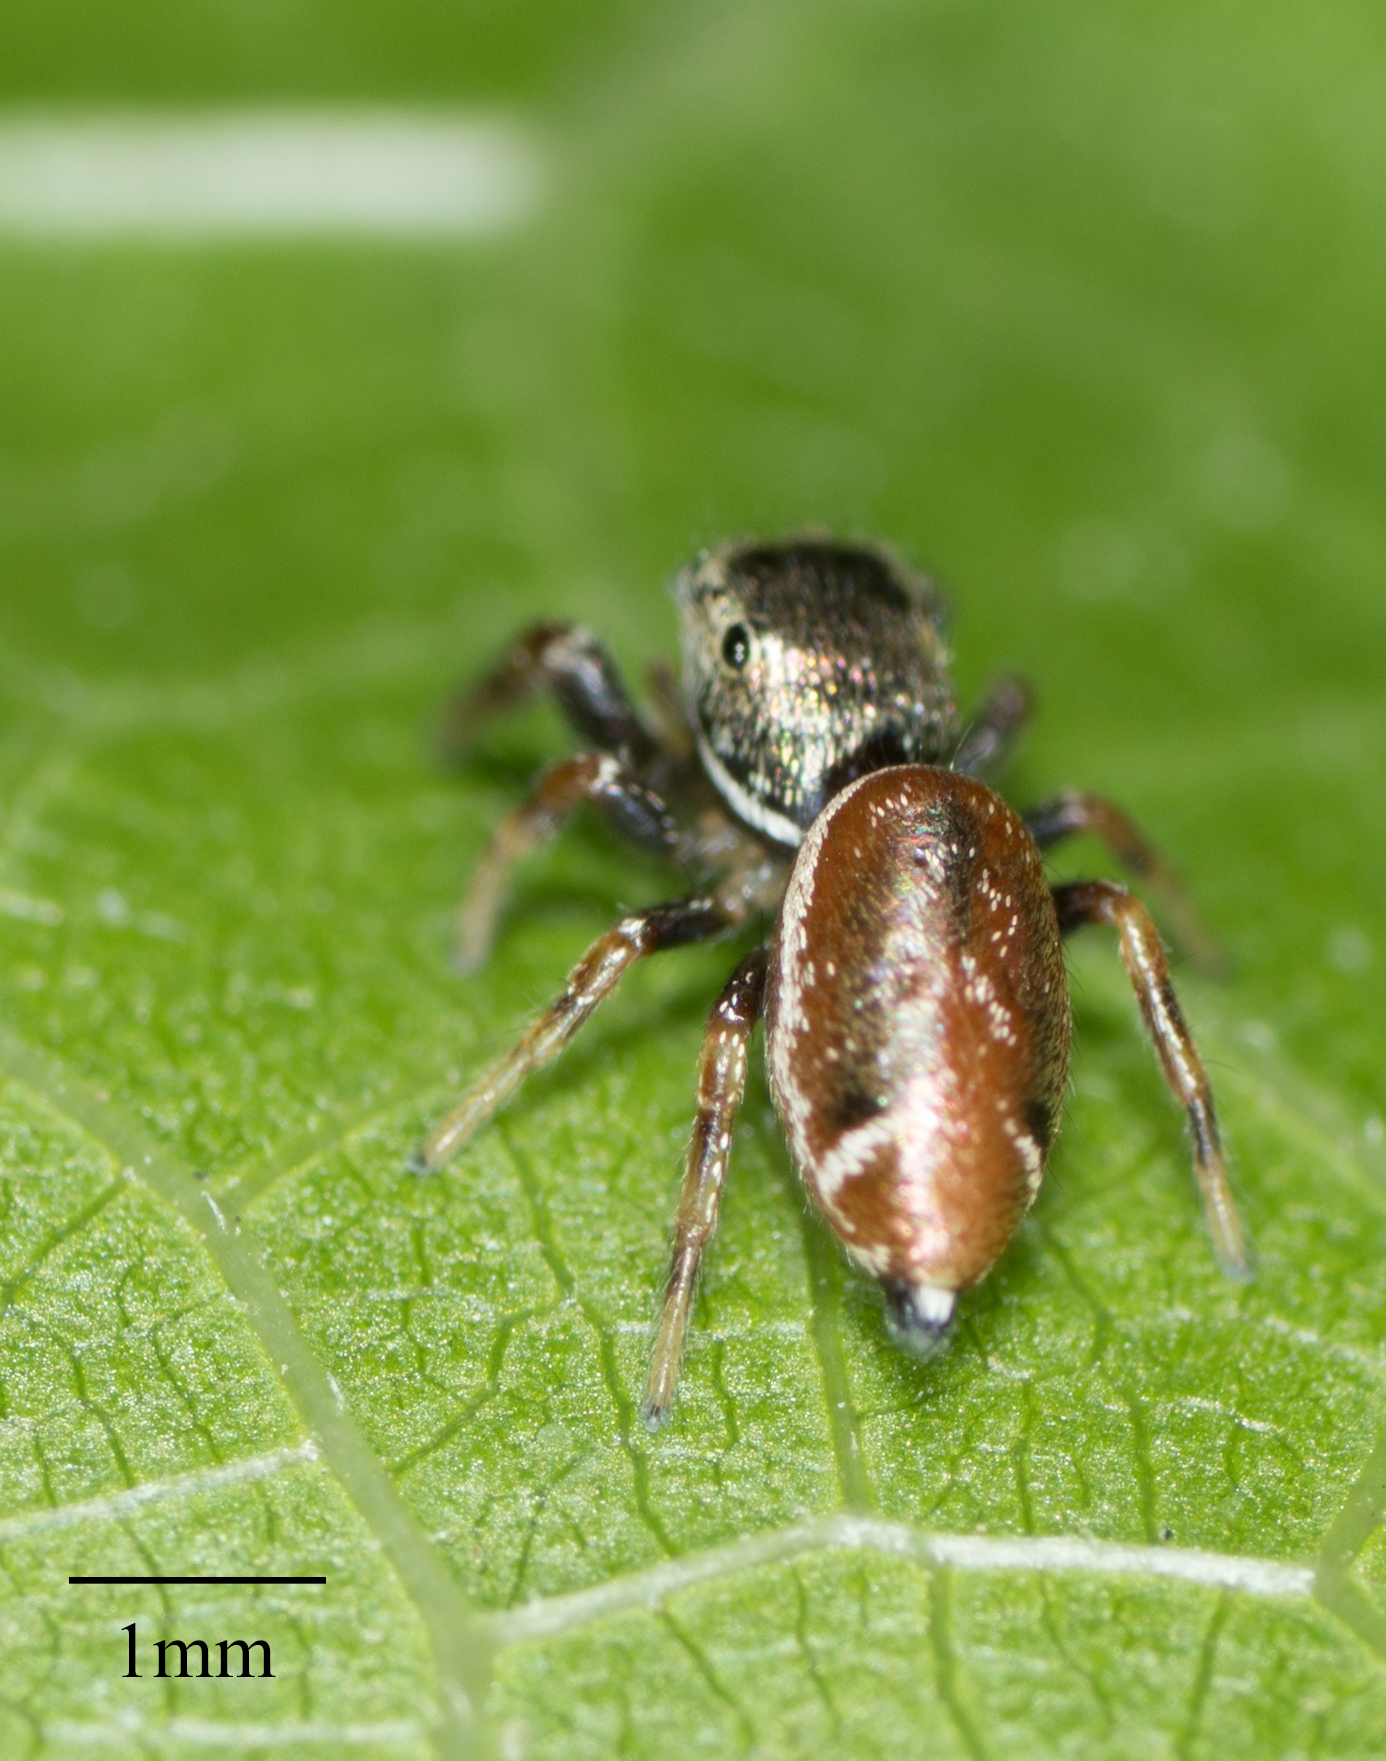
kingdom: Animalia
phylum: Arthropoda
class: Arachnida
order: Araneae
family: Salticidae
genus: Sassacus
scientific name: Sassacus vitis
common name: Jumping spiders
